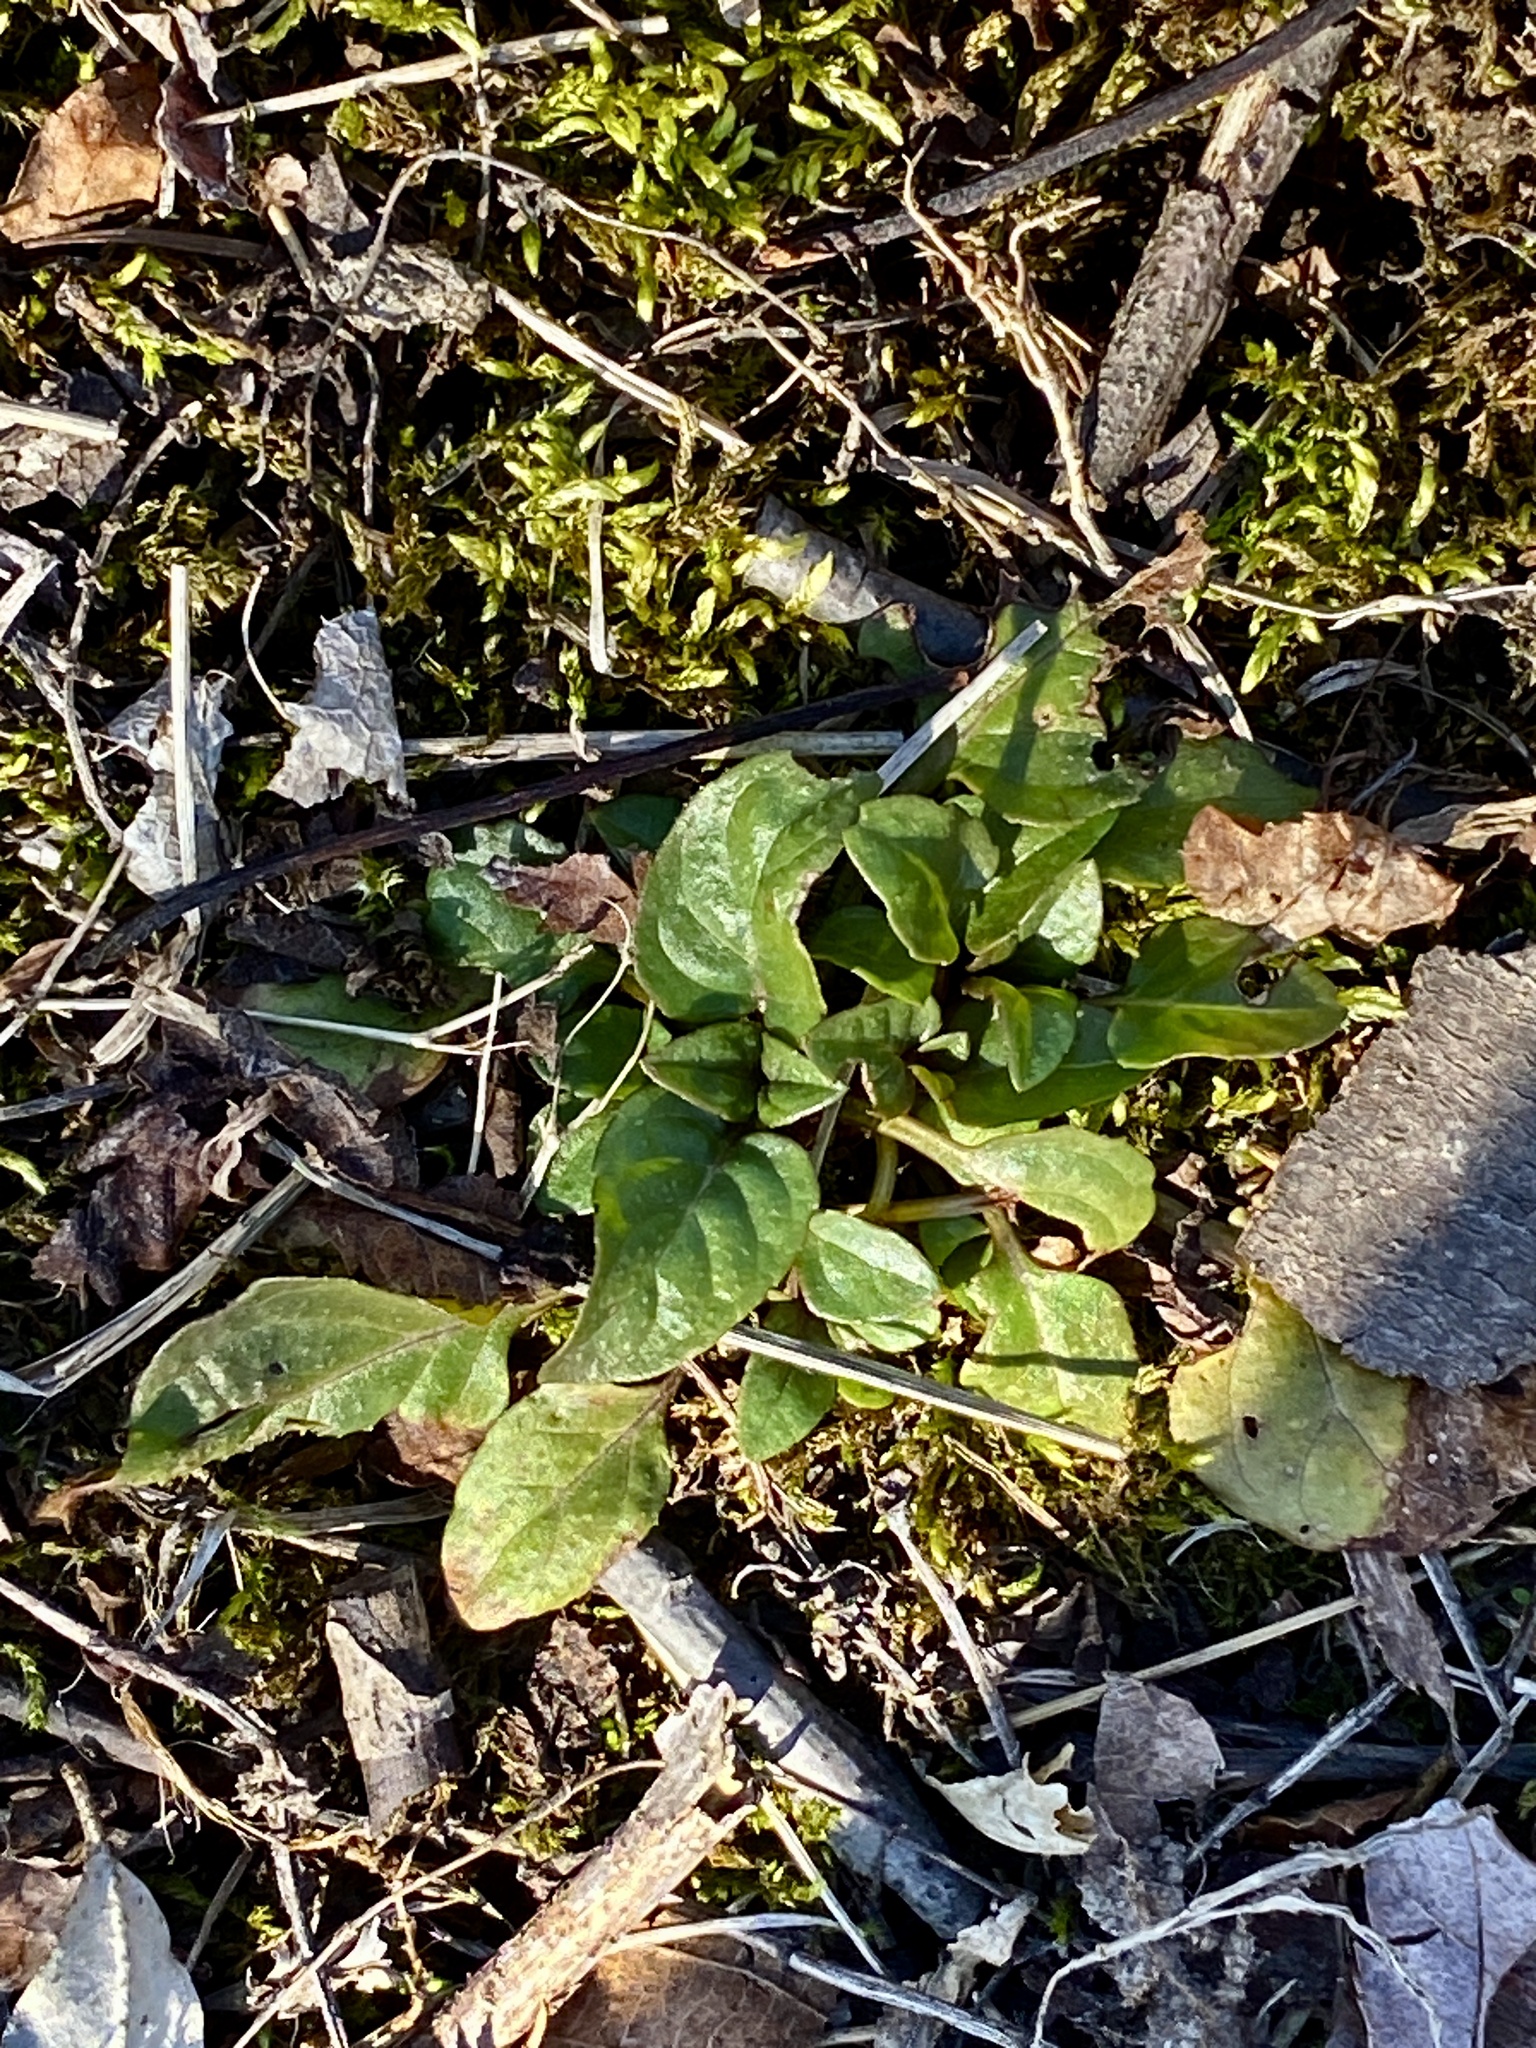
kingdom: Plantae
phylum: Tracheophyta
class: Magnoliopsida
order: Lamiales
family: Lamiaceae
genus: Prunella
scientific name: Prunella vulgaris
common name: Heal-all
